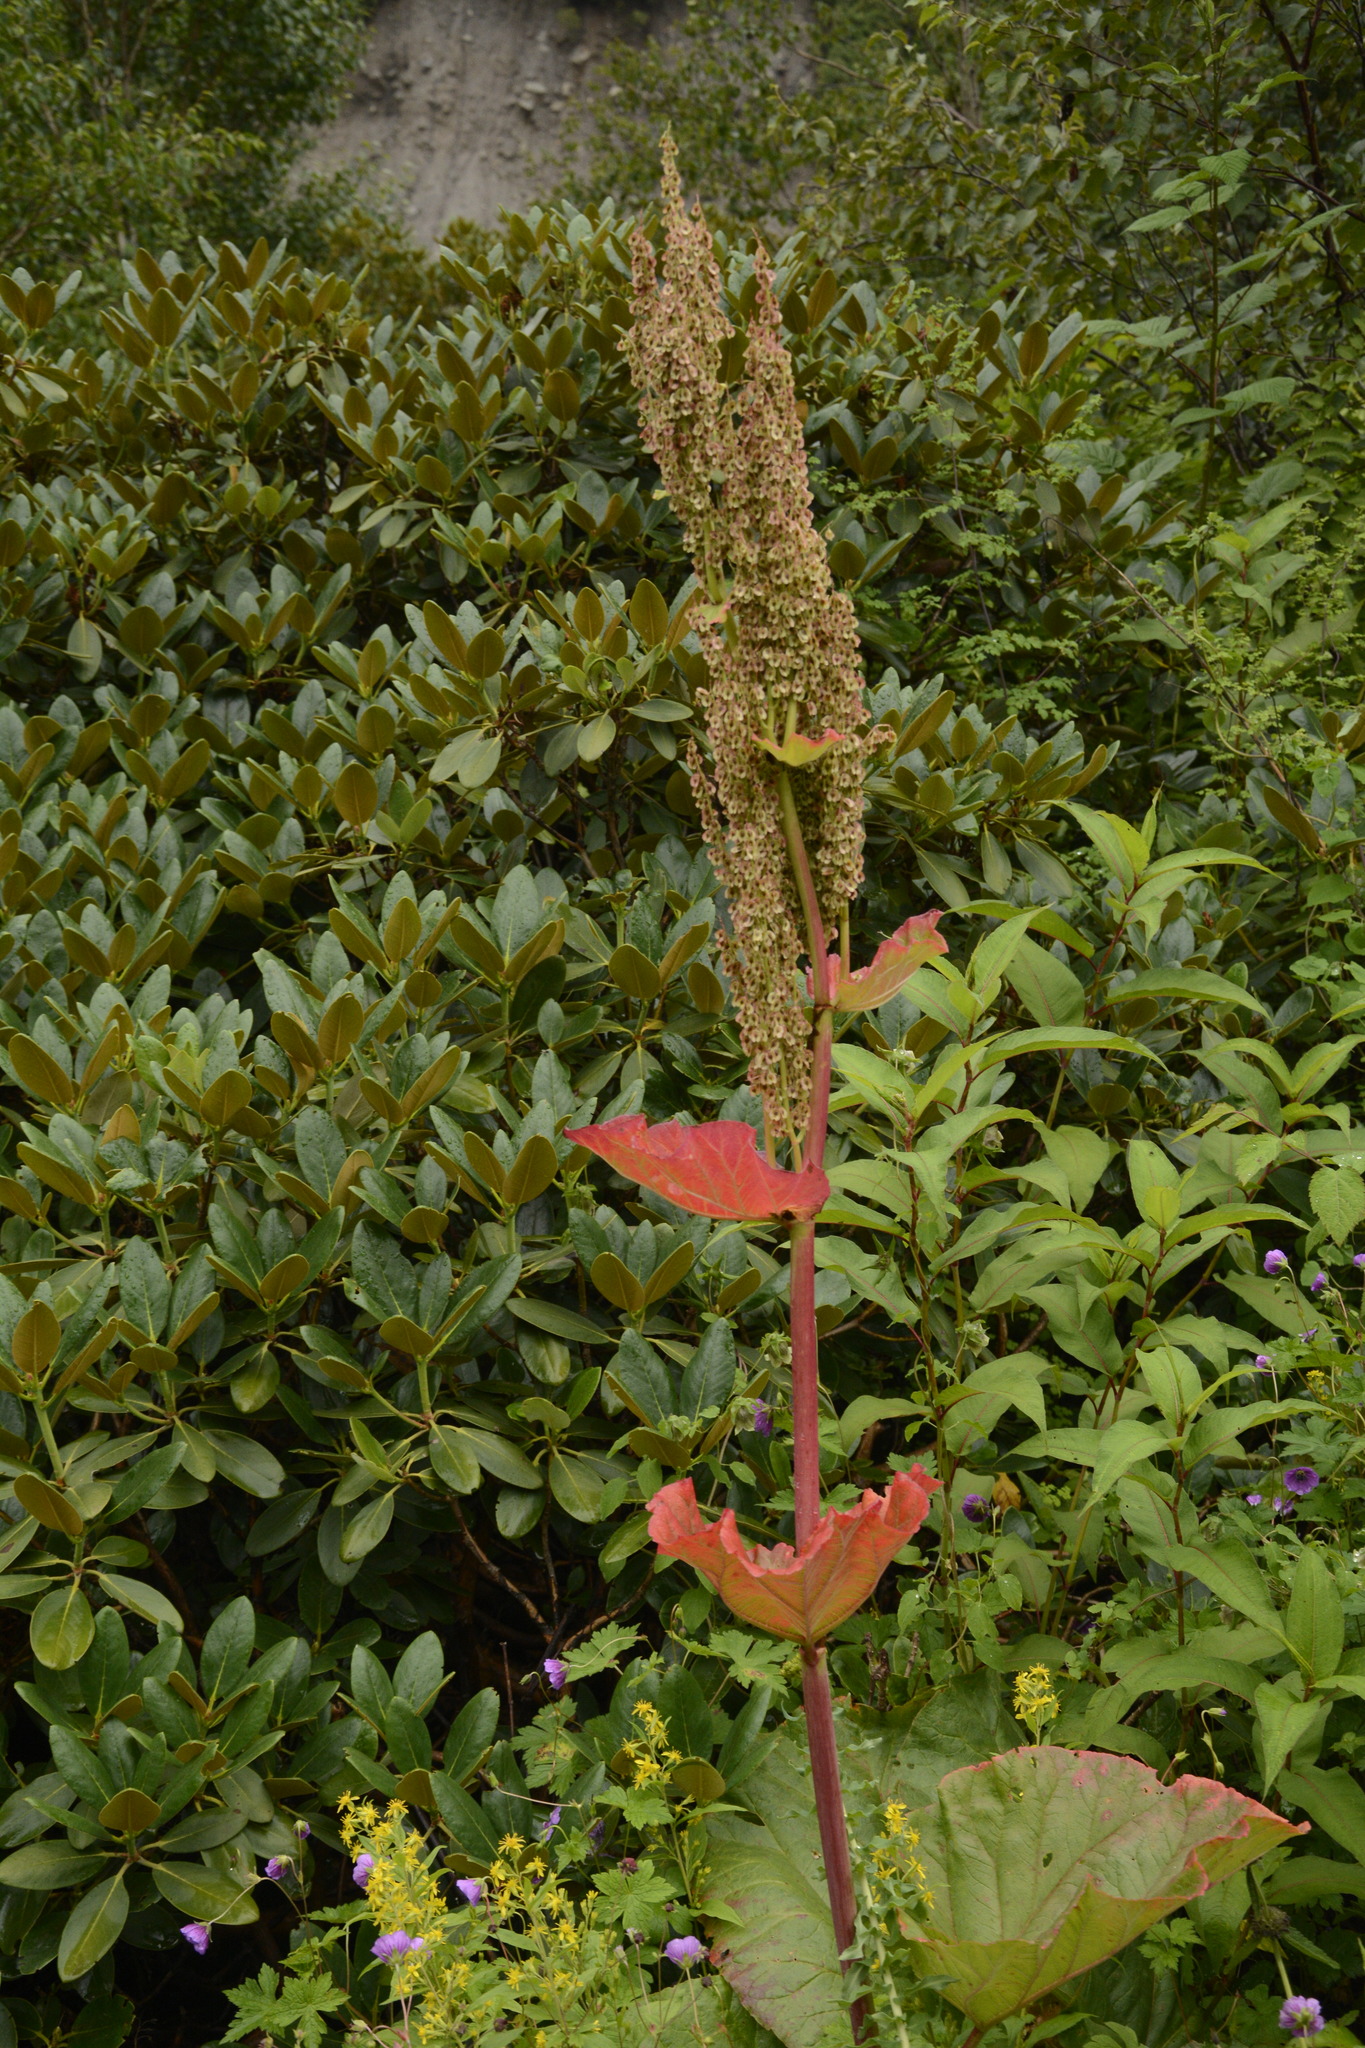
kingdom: Plantae
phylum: Tracheophyta
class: Magnoliopsida
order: Caryophyllales
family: Polygonaceae
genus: Rheum
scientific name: Rheum australe
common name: Himalayan rhubarb
